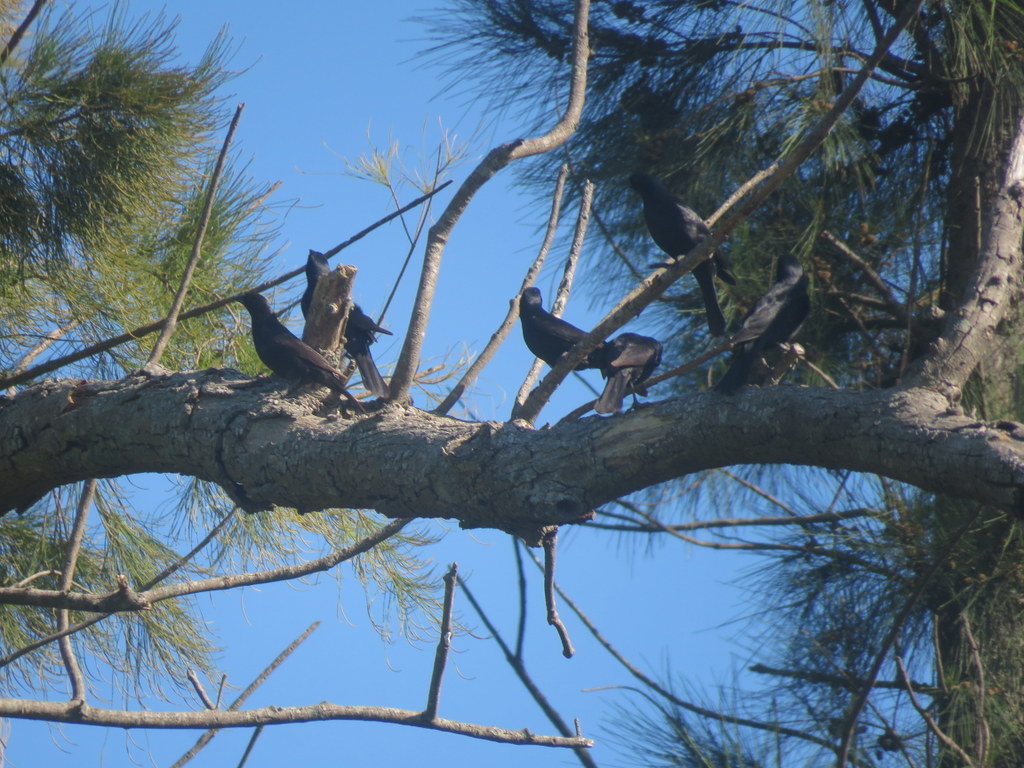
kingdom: Animalia
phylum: Chordata
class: Aves
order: Passeriformes
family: Icteridae
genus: Molothrus
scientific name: Molothrus rufoaxillaris
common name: Screaming cowbird
